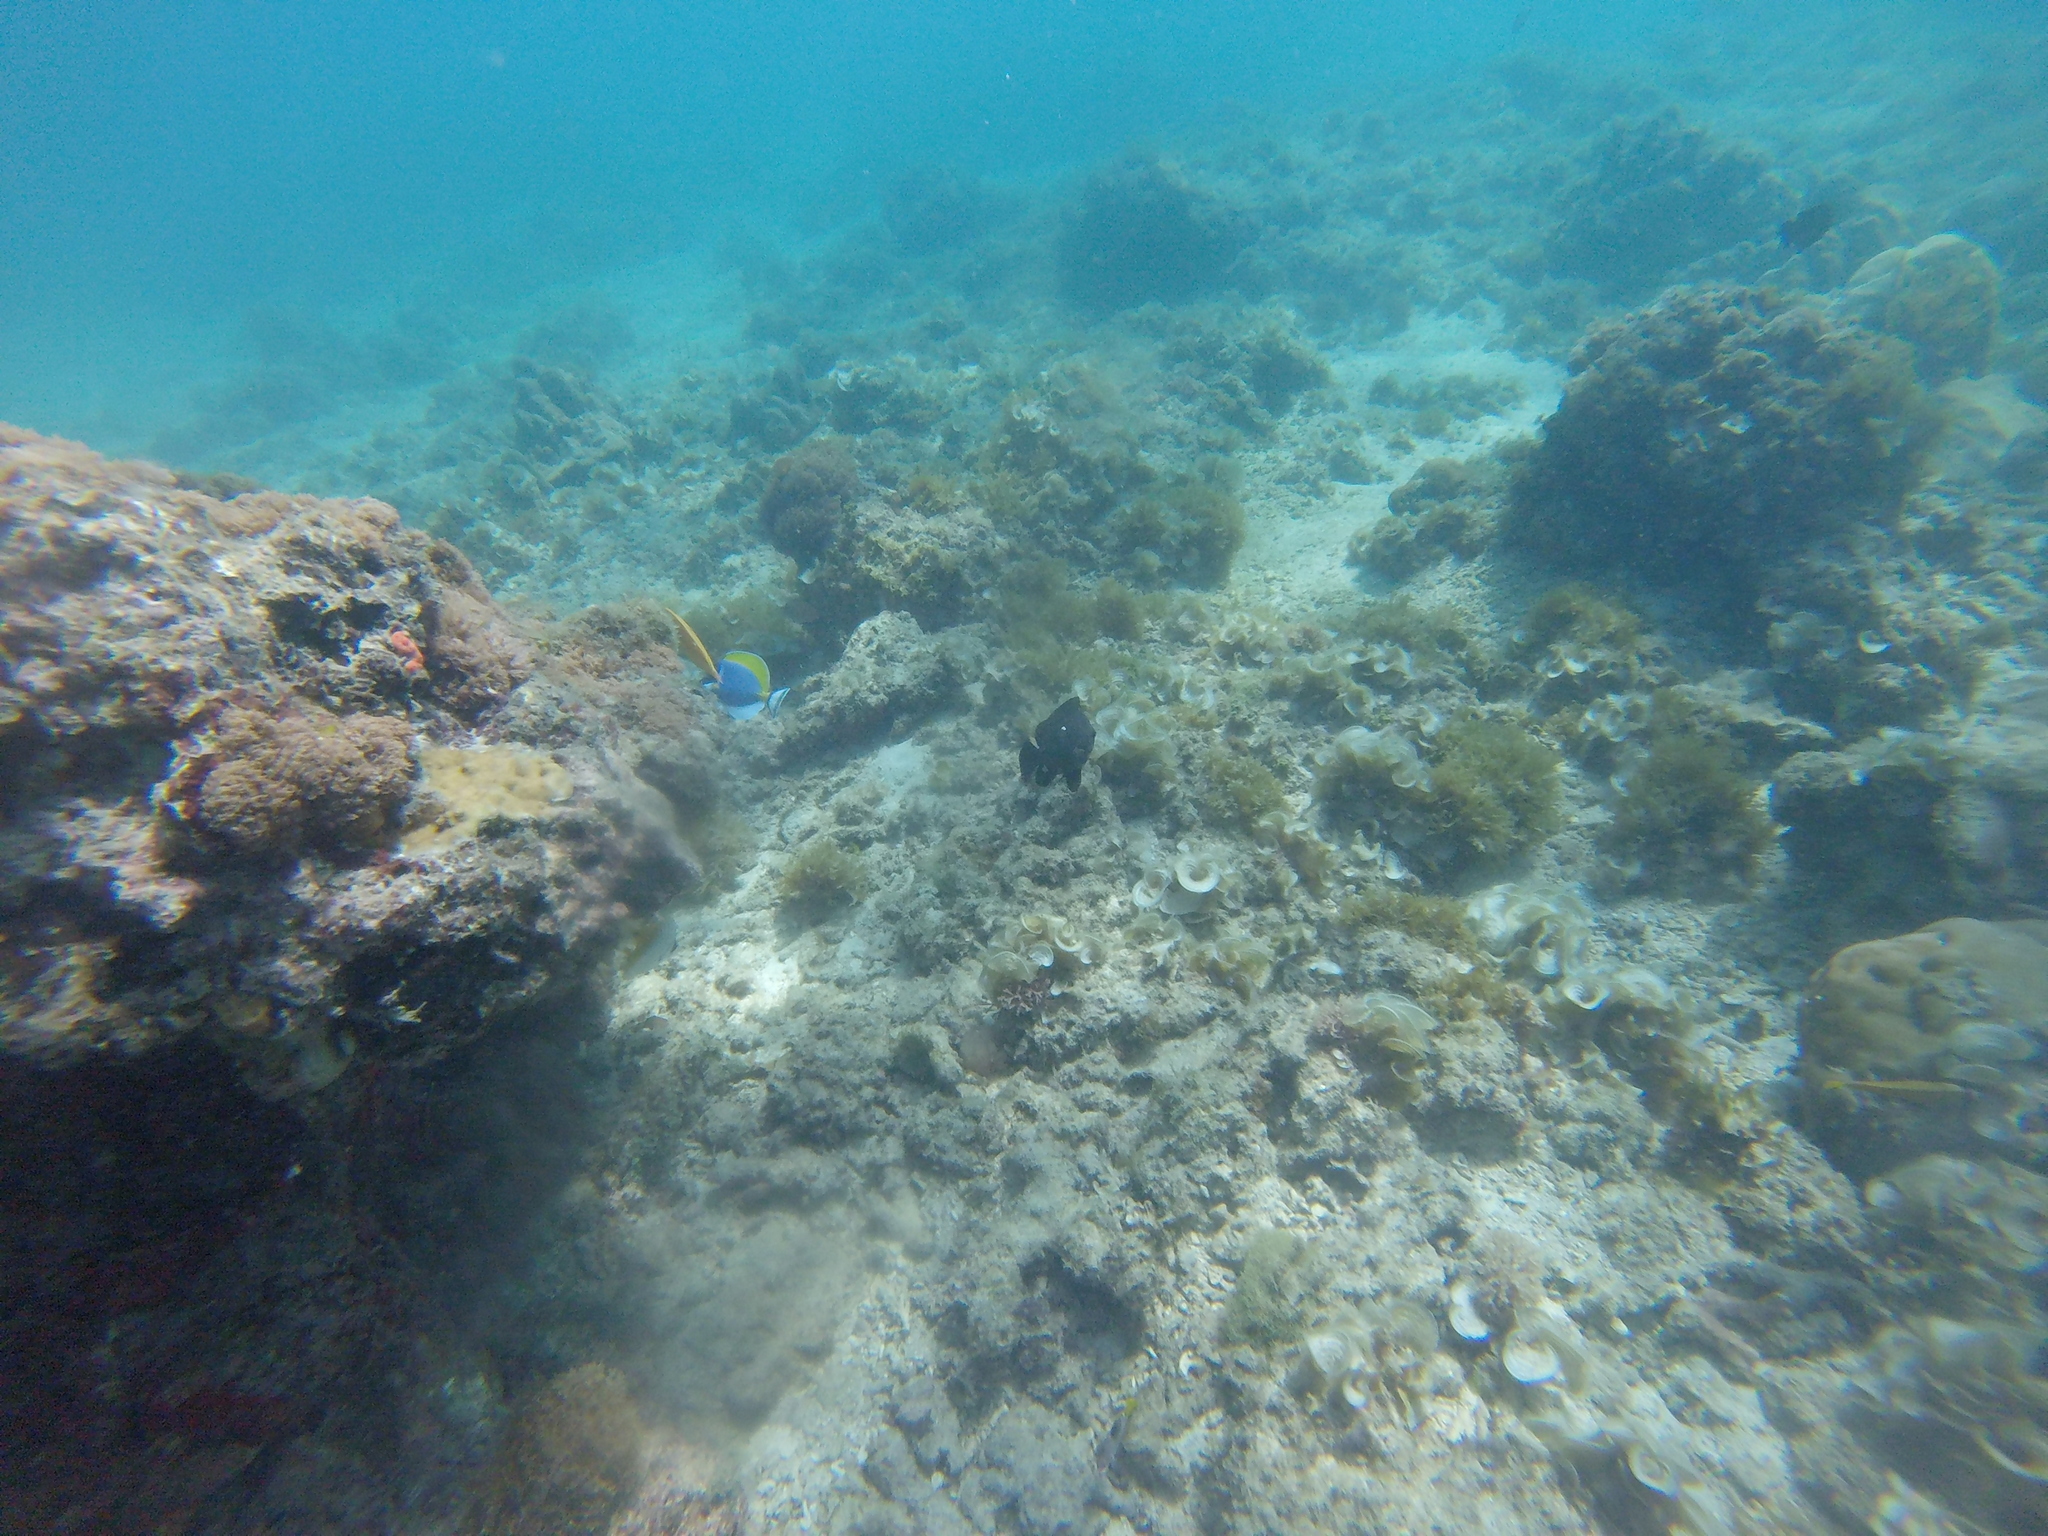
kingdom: Animalia
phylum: Chordata
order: Perciformes
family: Pomacentridae
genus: Dascyllus
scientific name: Dascyllus trimaculatus
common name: Threespot dascyllus
